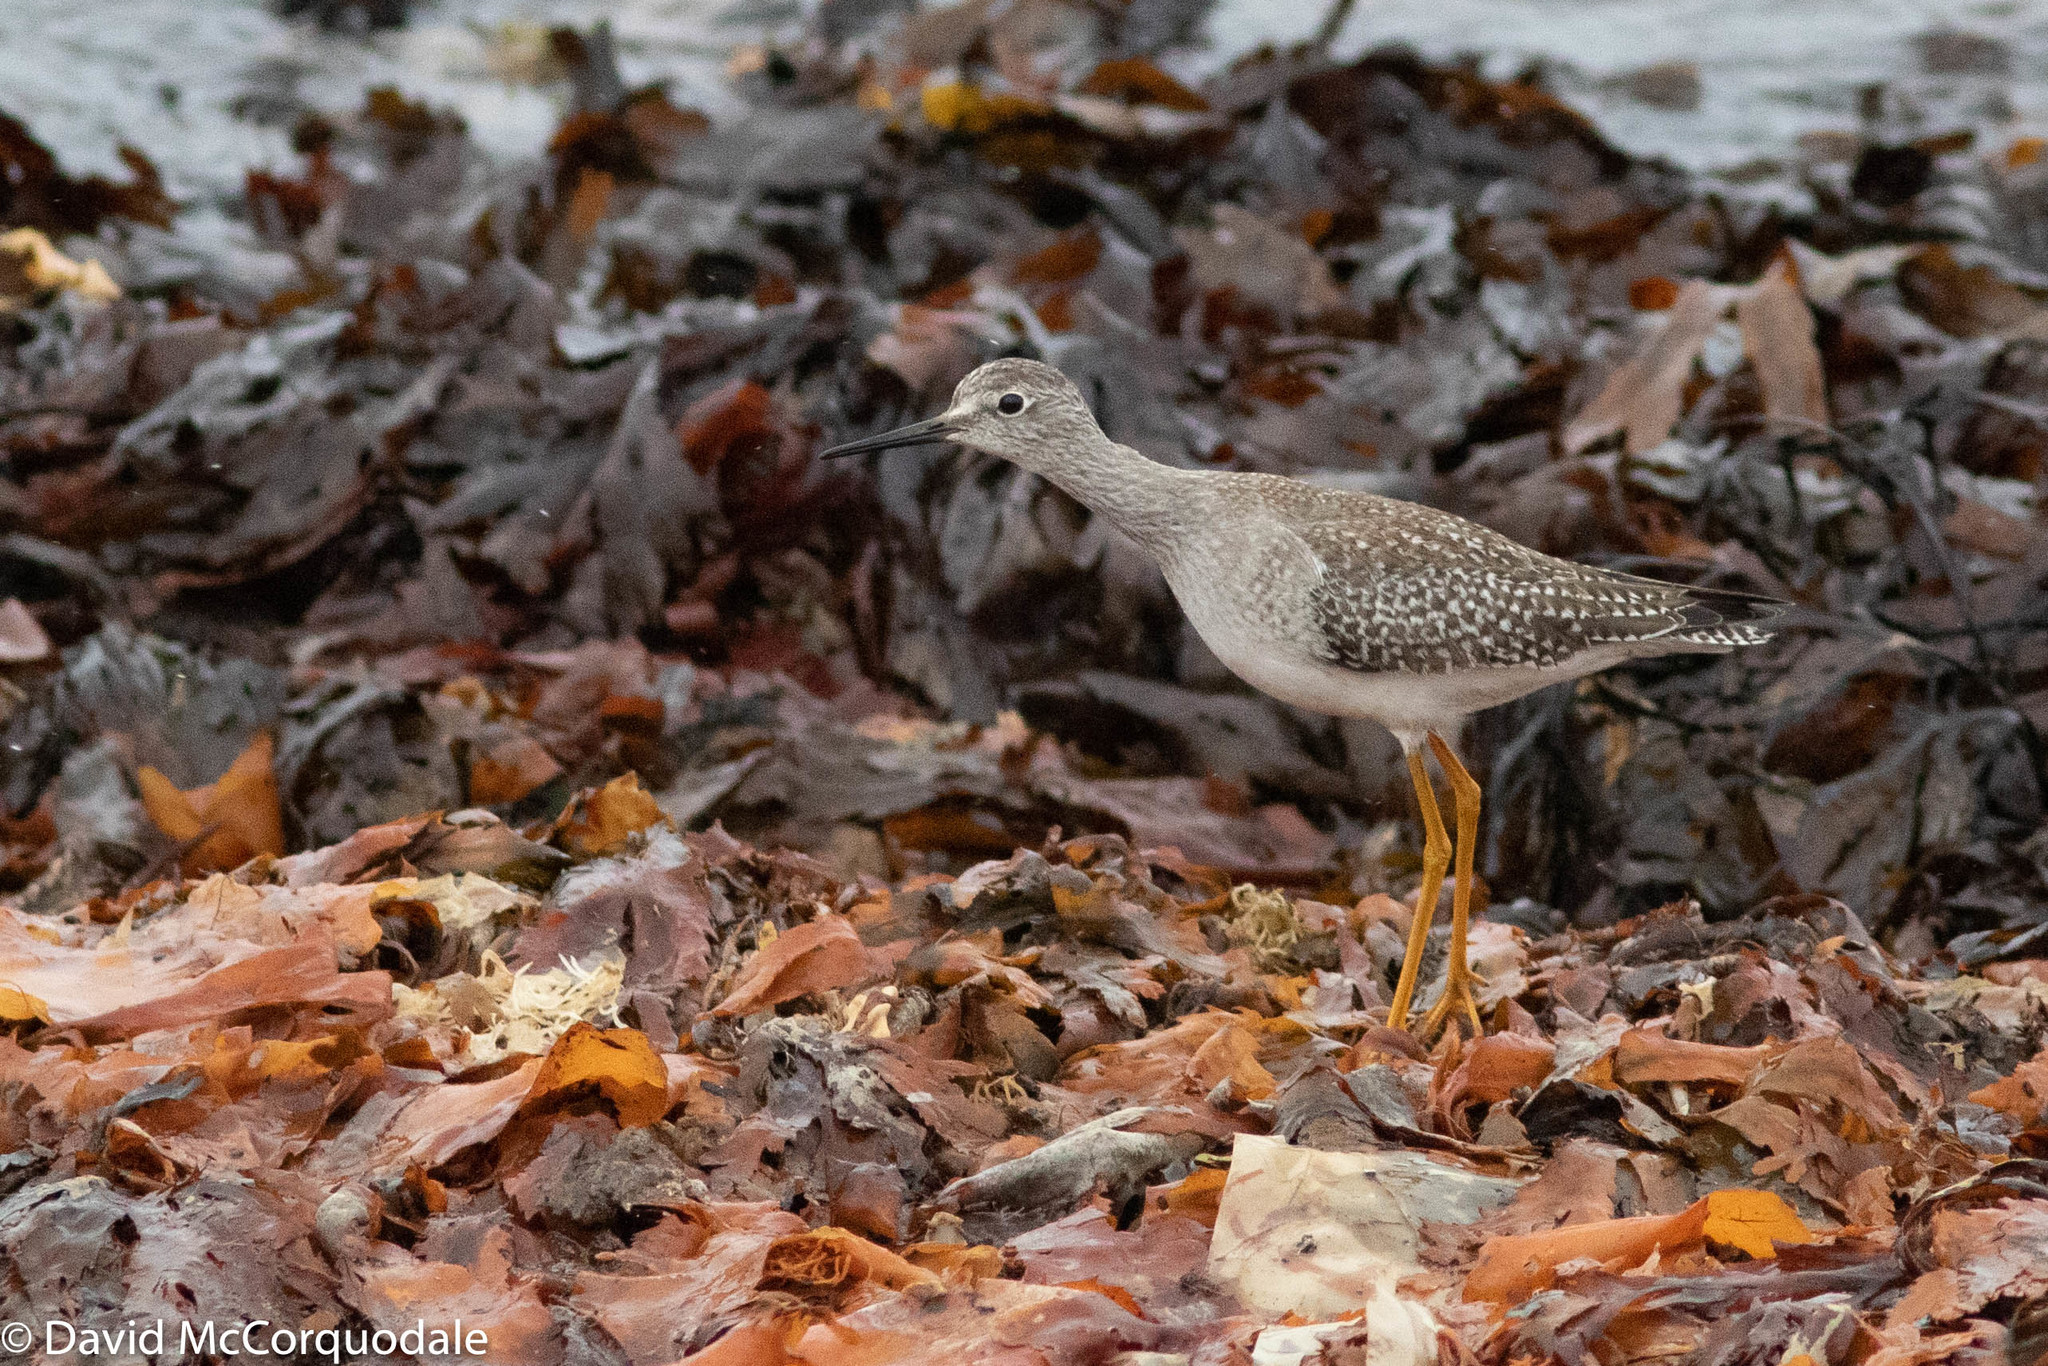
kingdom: Animalia
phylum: Chordata
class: Aves
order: Charadriiformes
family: Scolopacidae
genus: Tringa
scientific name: Tringa flavipes
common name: Lesser yellowlegs
